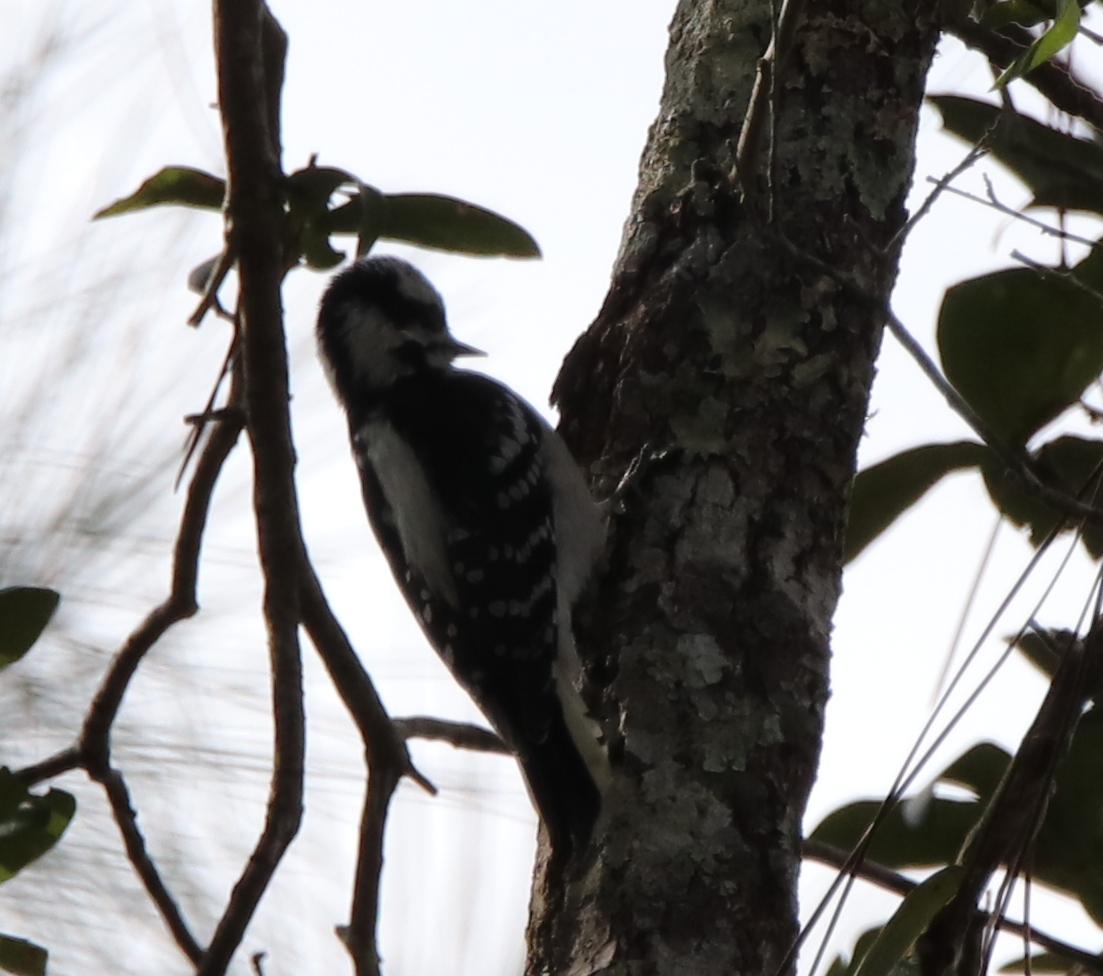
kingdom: Animalia
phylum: Chordata
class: Aves
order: Piciformes
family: Picidae
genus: Dryobates
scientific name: Dryobates pubescens
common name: Downy woodpecker
